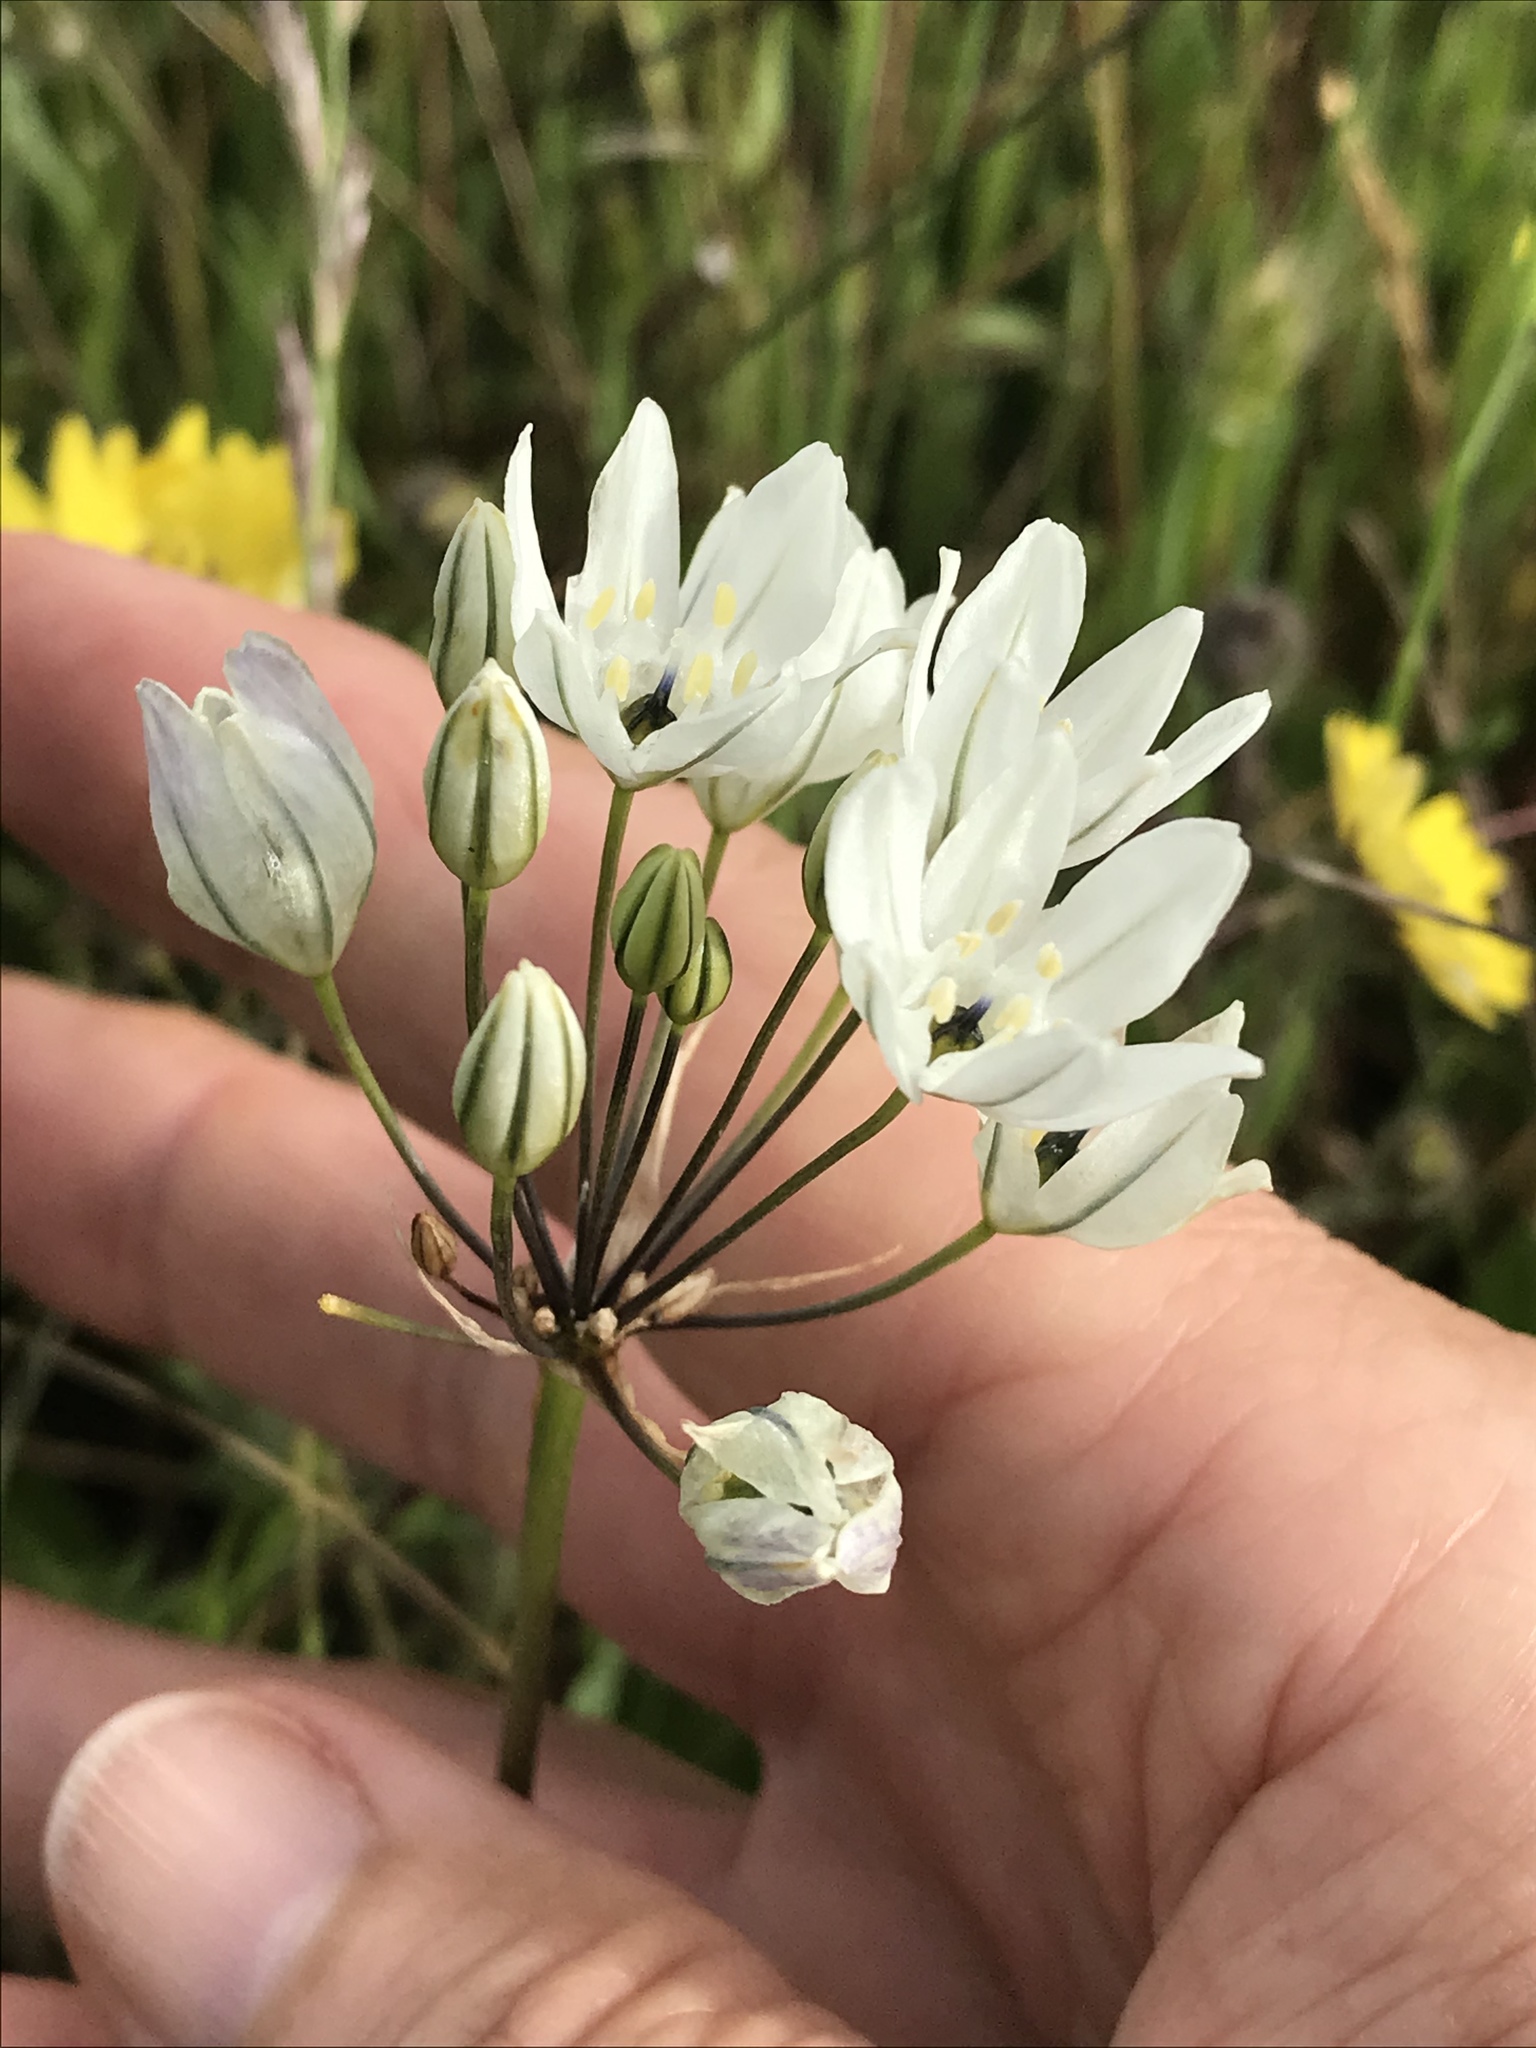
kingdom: Plantae
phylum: Tracheophyta
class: Liliopsida
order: Asparagales
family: Asparagaceae
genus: Triteleia
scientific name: Triteleia hyacinthina
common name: White brodiaea
